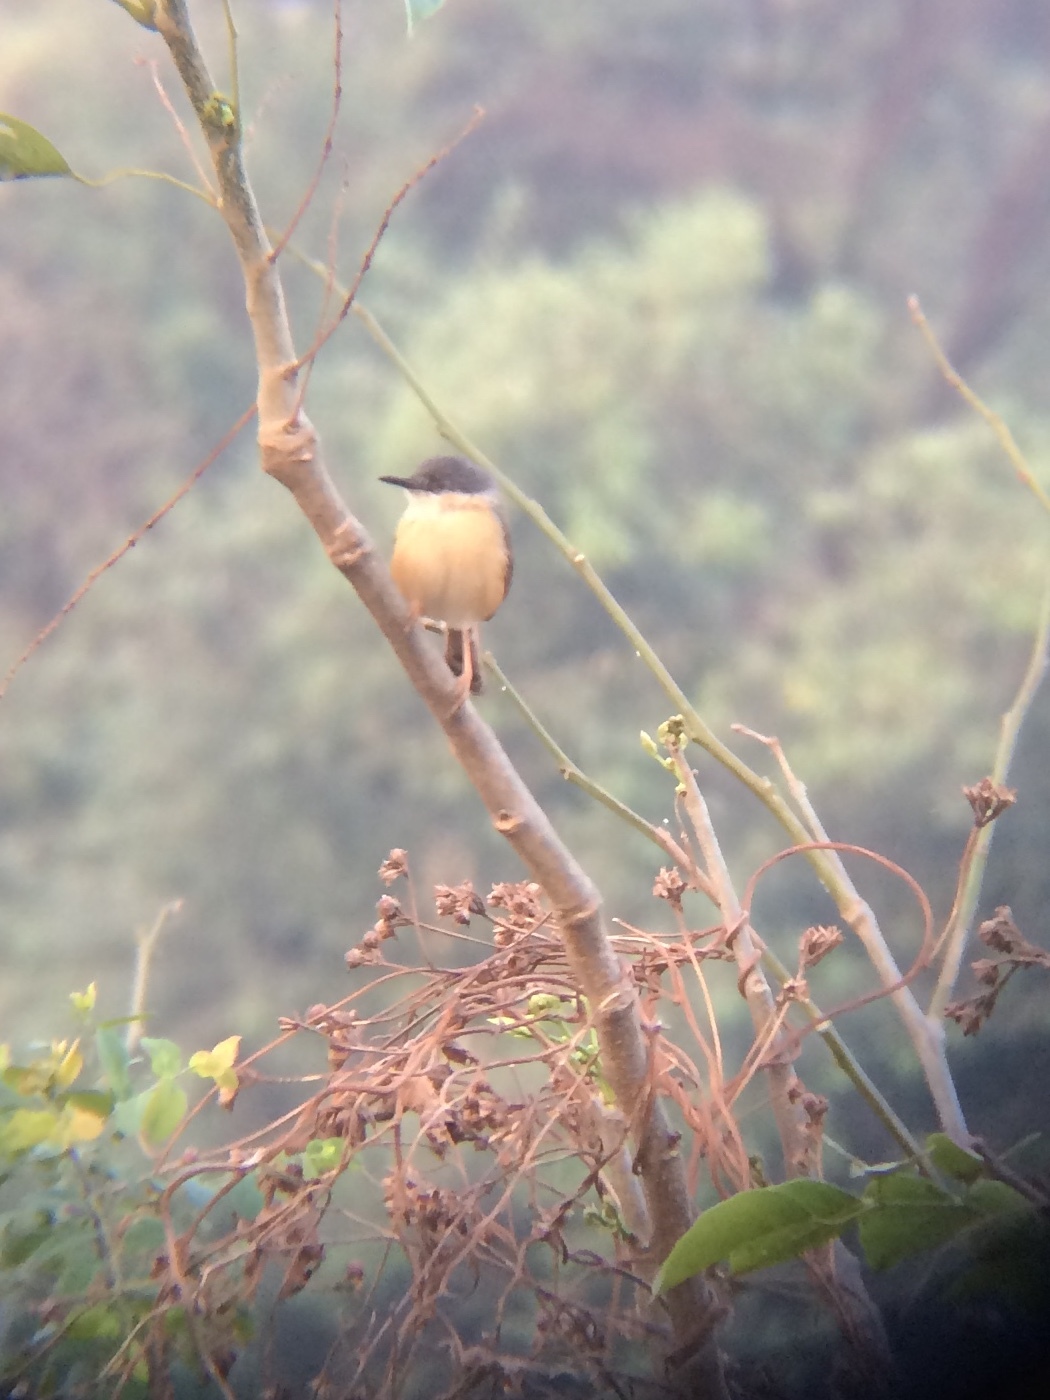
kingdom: Animalia
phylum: Chordata
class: Aves
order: Passeriformes
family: Cisticolidae
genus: Prinia
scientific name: Prinia socialis
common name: Ashy prinia
